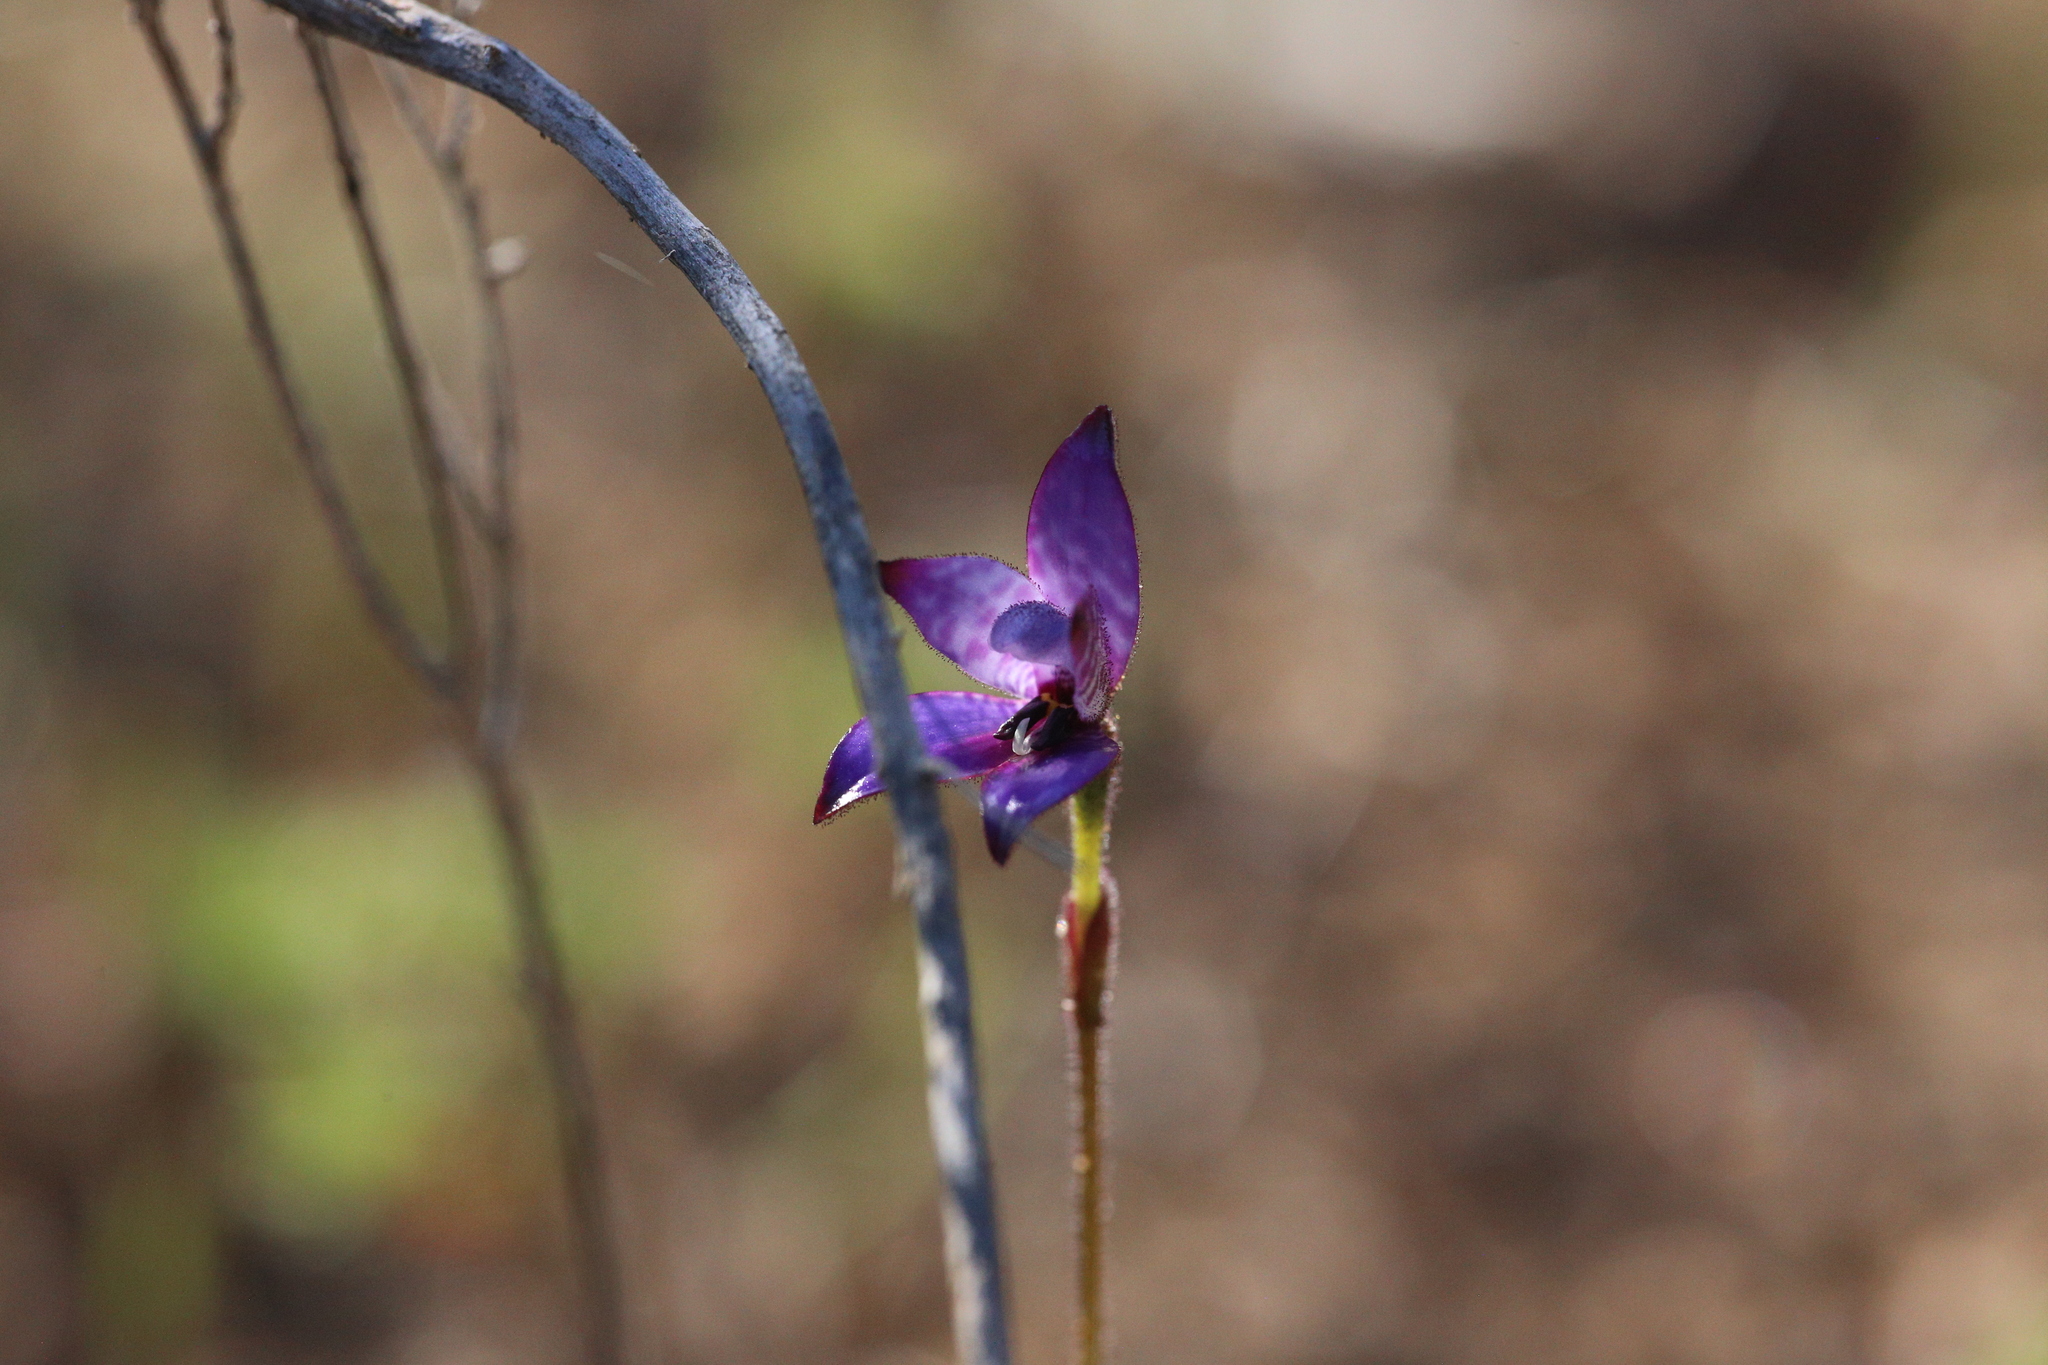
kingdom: Plantae
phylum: Tracheophyta
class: Liliopsida
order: Asparagales
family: Orchidaceae
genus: Caladenia
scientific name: Caladenia brunonis
